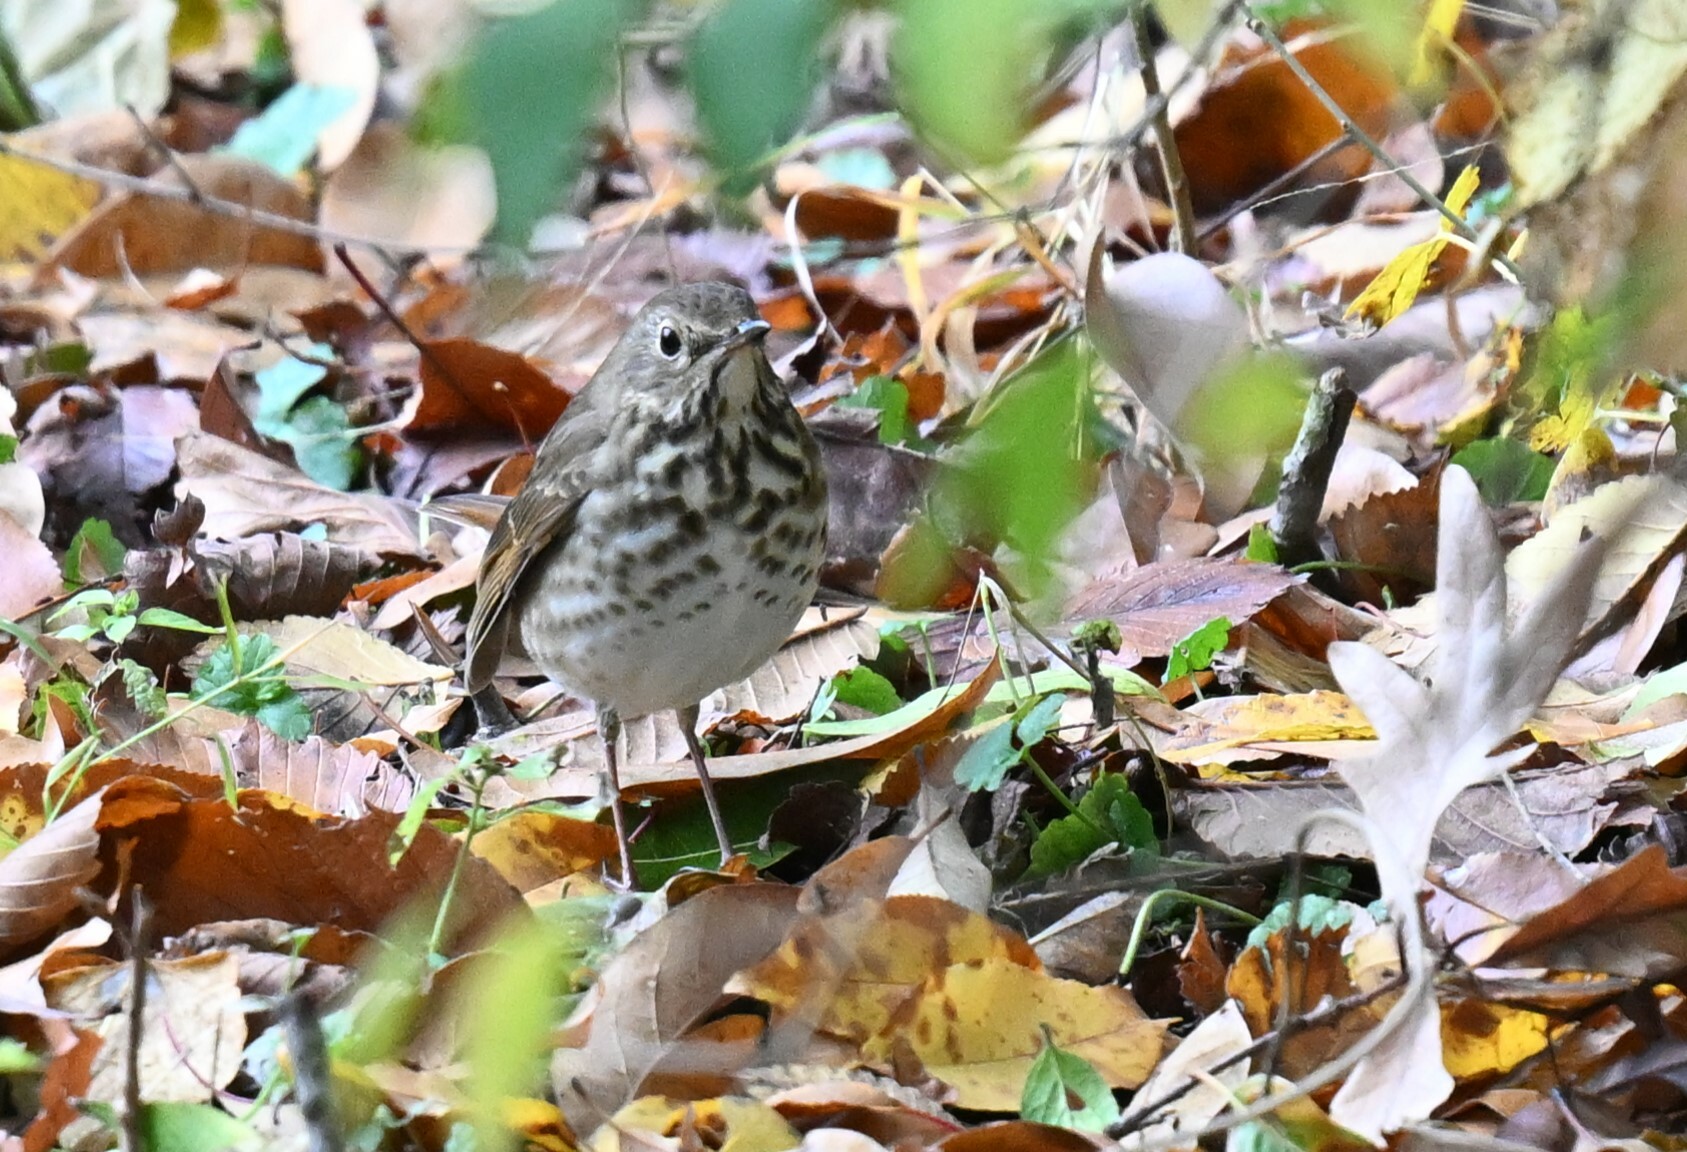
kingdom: Animalia
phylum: Chordata
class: Aves
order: Passeriformes
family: Turdidae
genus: Catharus
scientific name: Catharus guttatus
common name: Hermit thrush
